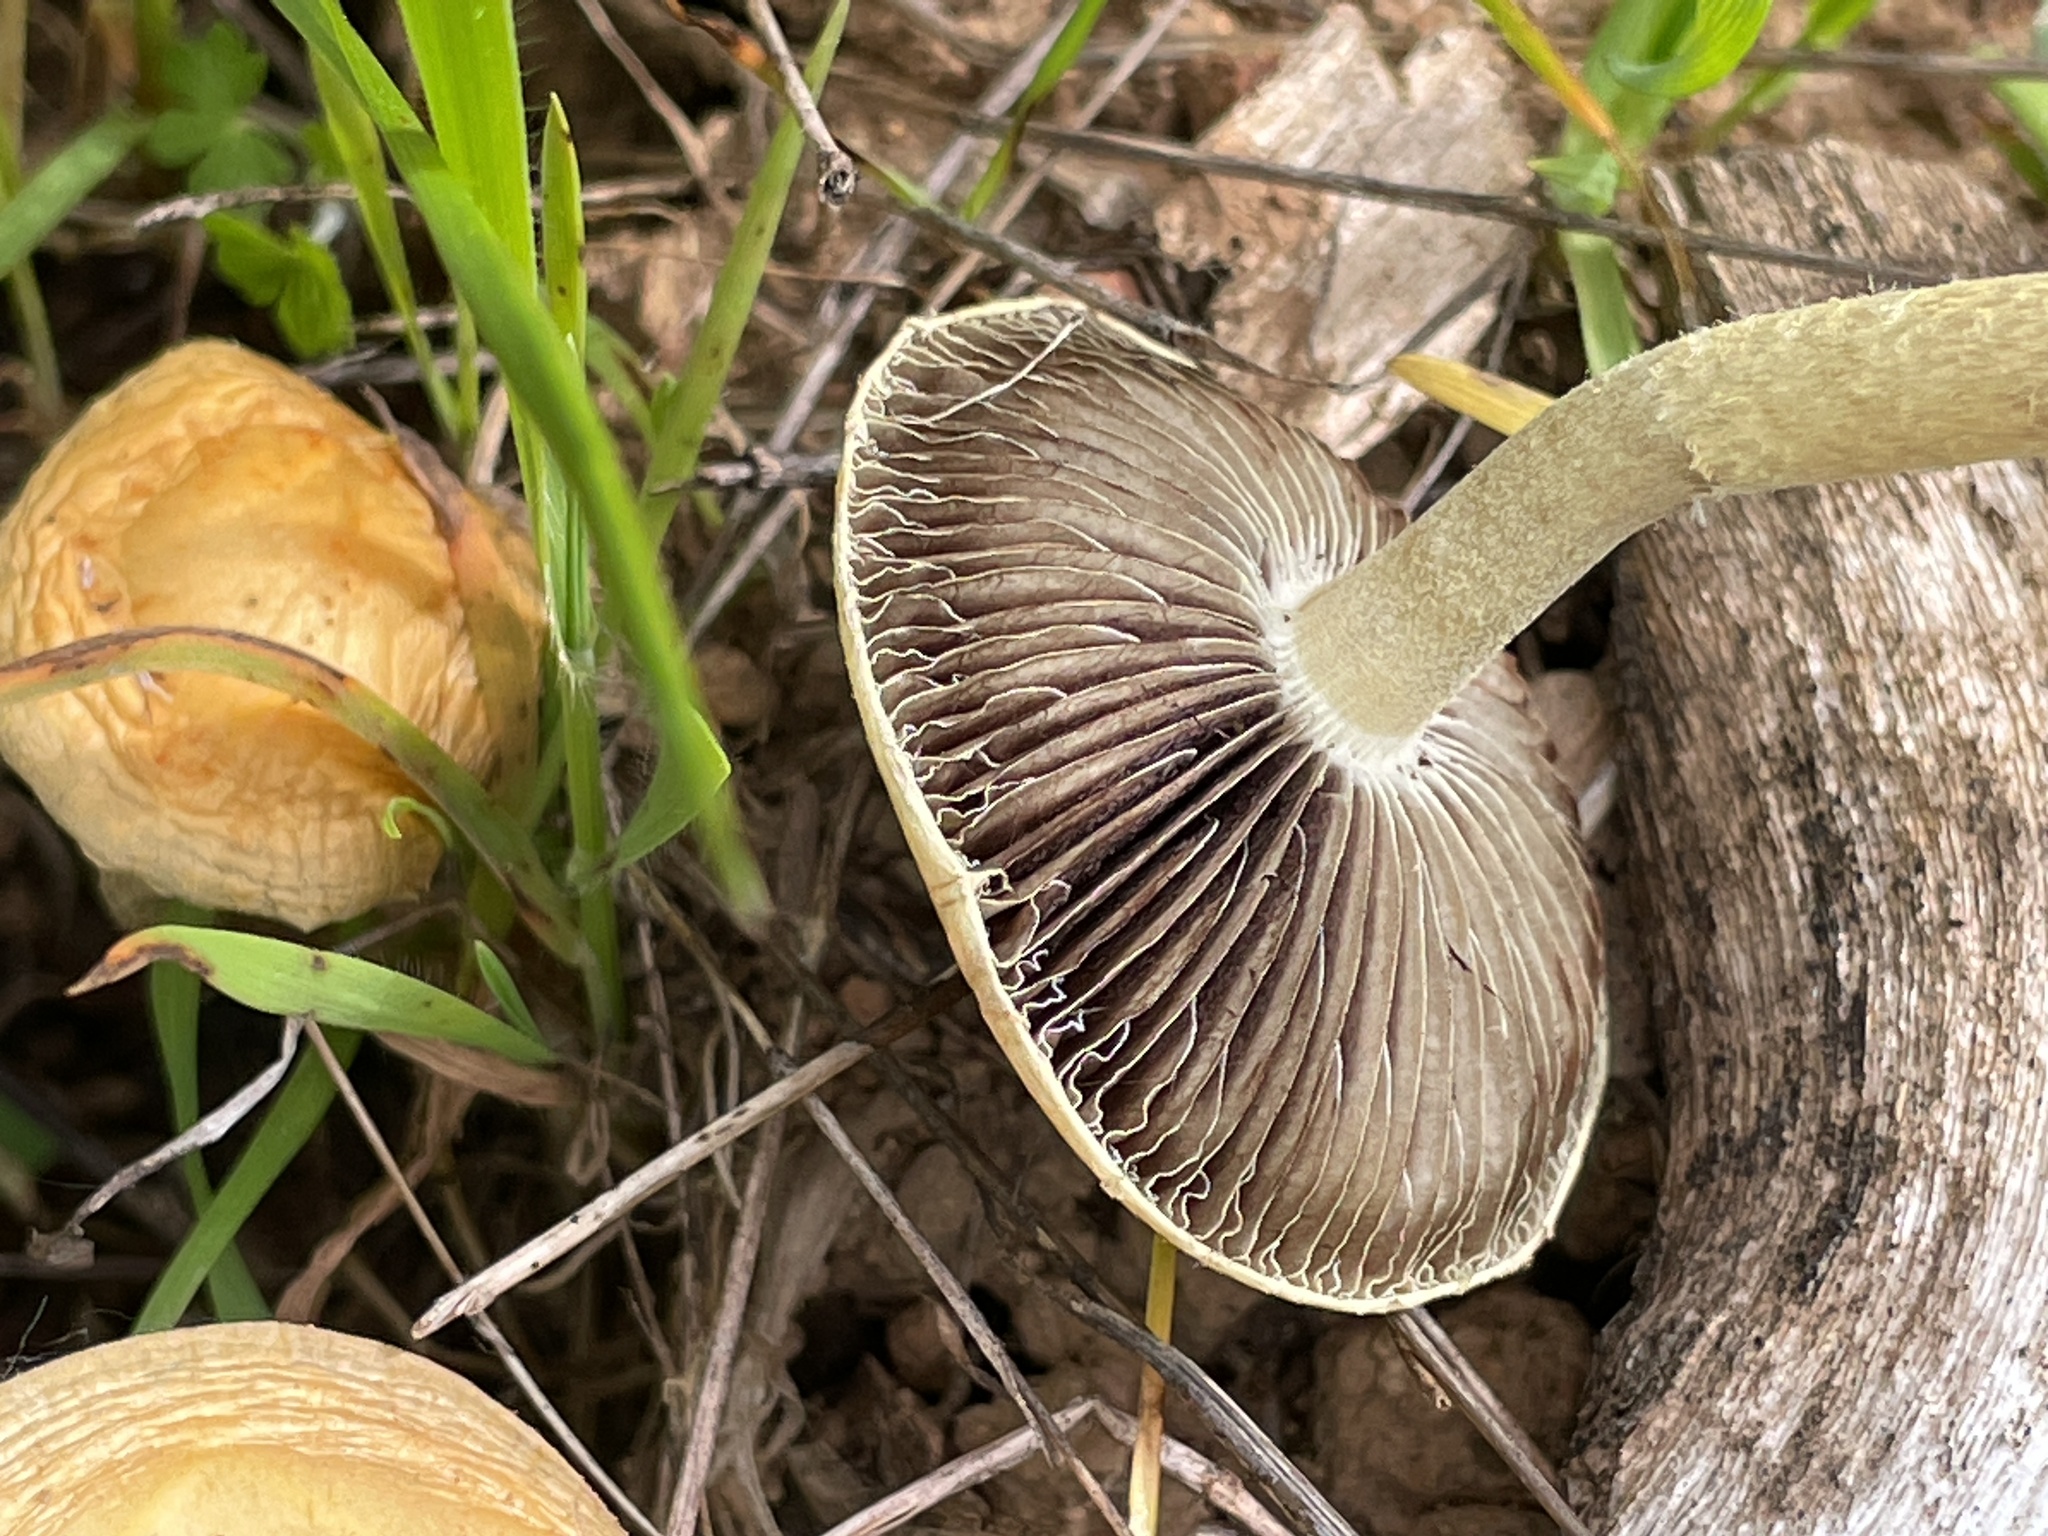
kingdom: Fungi
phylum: Basidiomycota
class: Agaricomycetes
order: Agaricales
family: Strophariaceae
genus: Leratiomyces
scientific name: Leratiomyces percevalii
